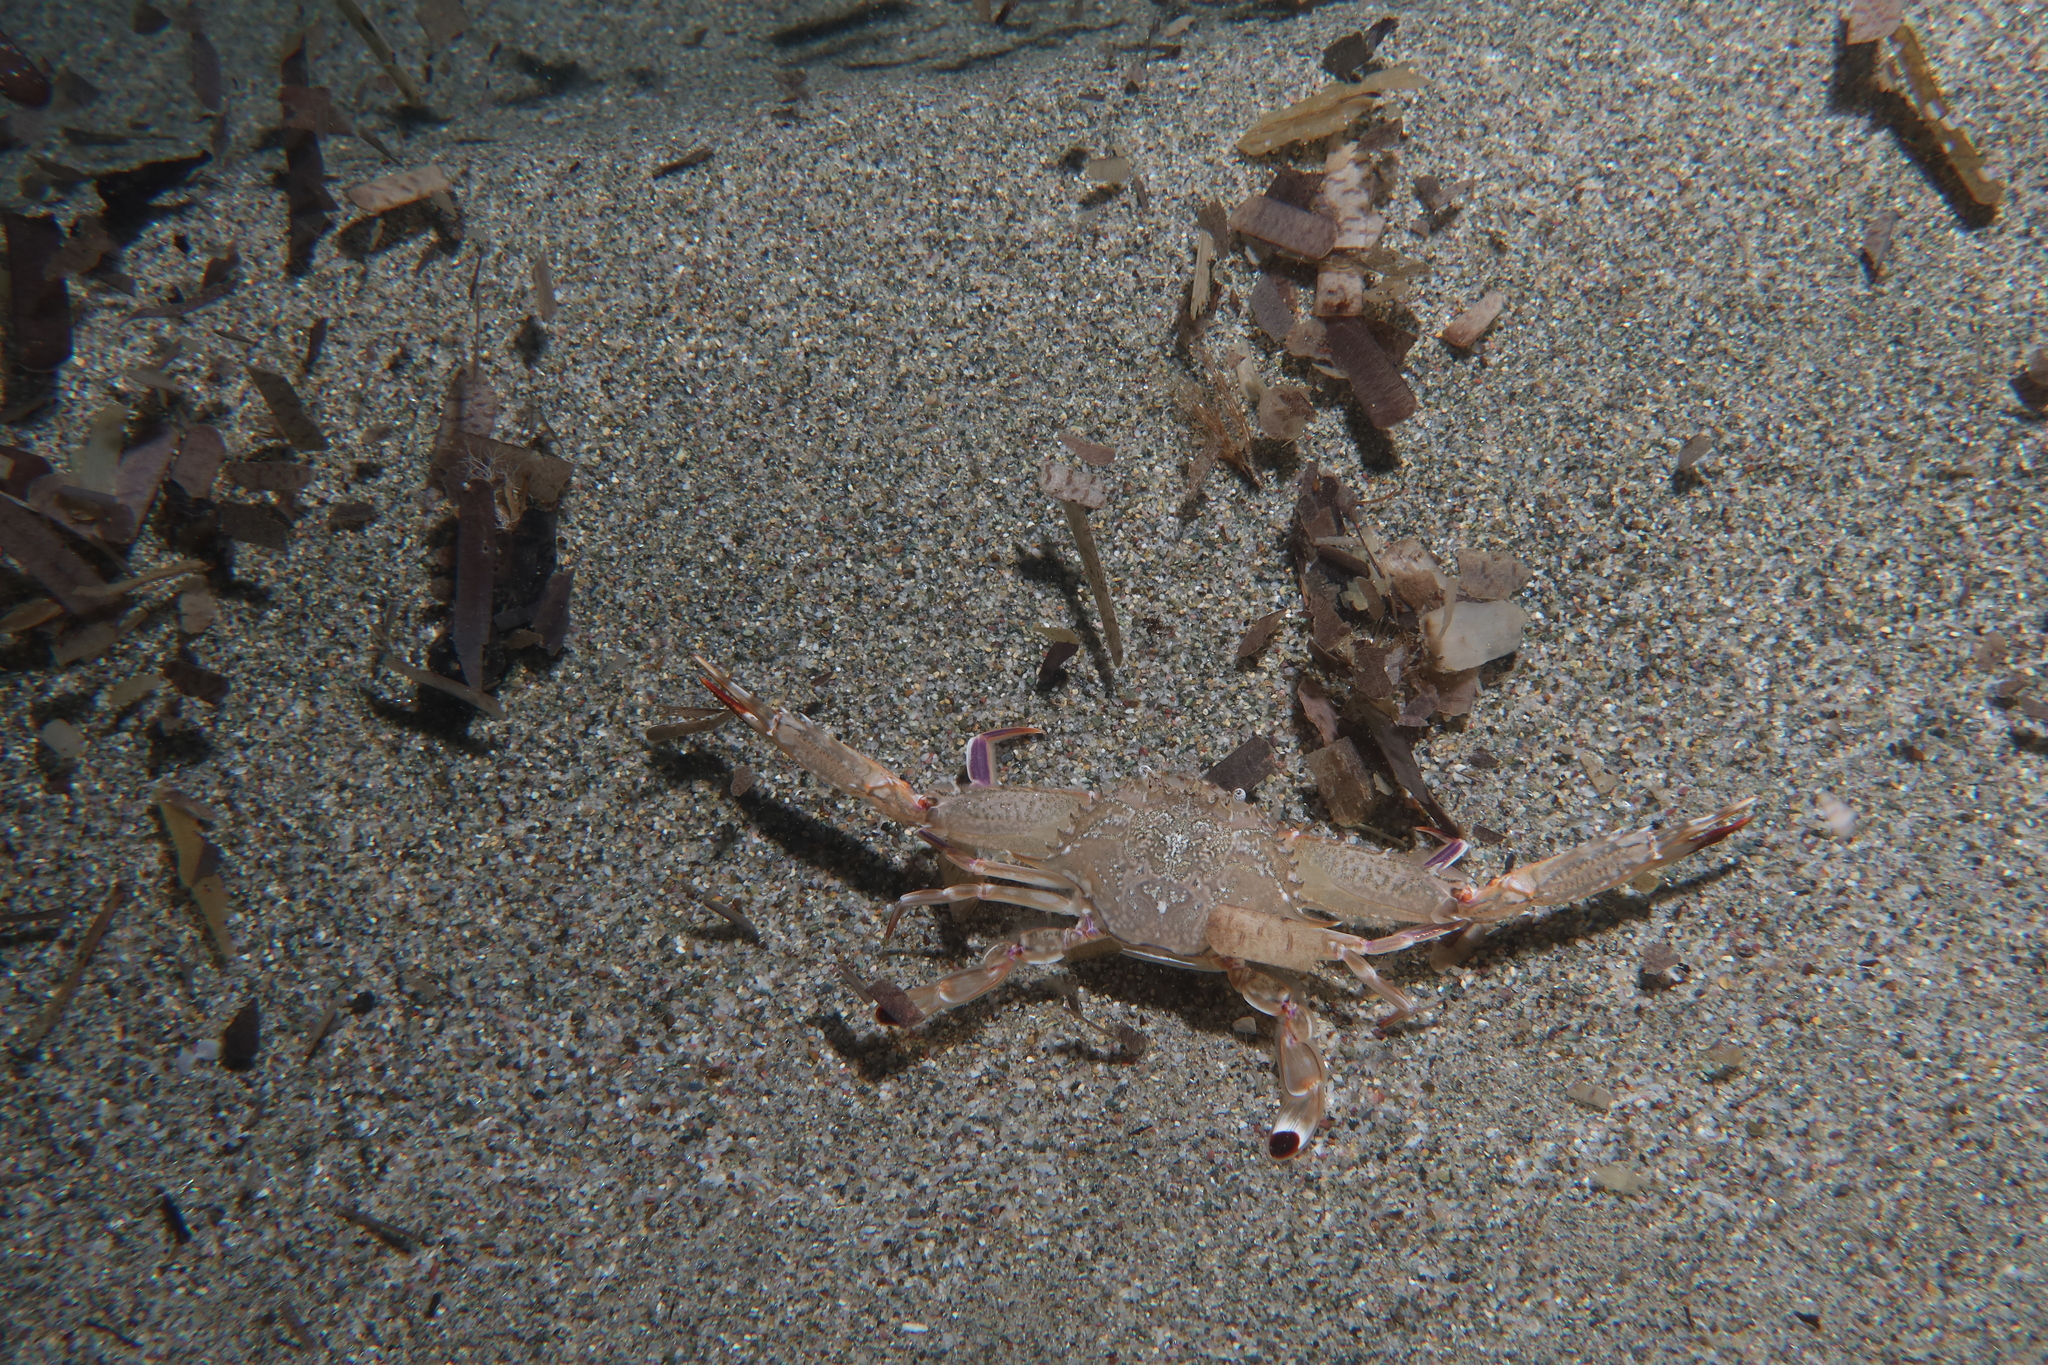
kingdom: Animalia
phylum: Arthropoda
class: Malacostraca
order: Decapoda
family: Portunidae
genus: Achelous
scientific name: Achelous hastatus
